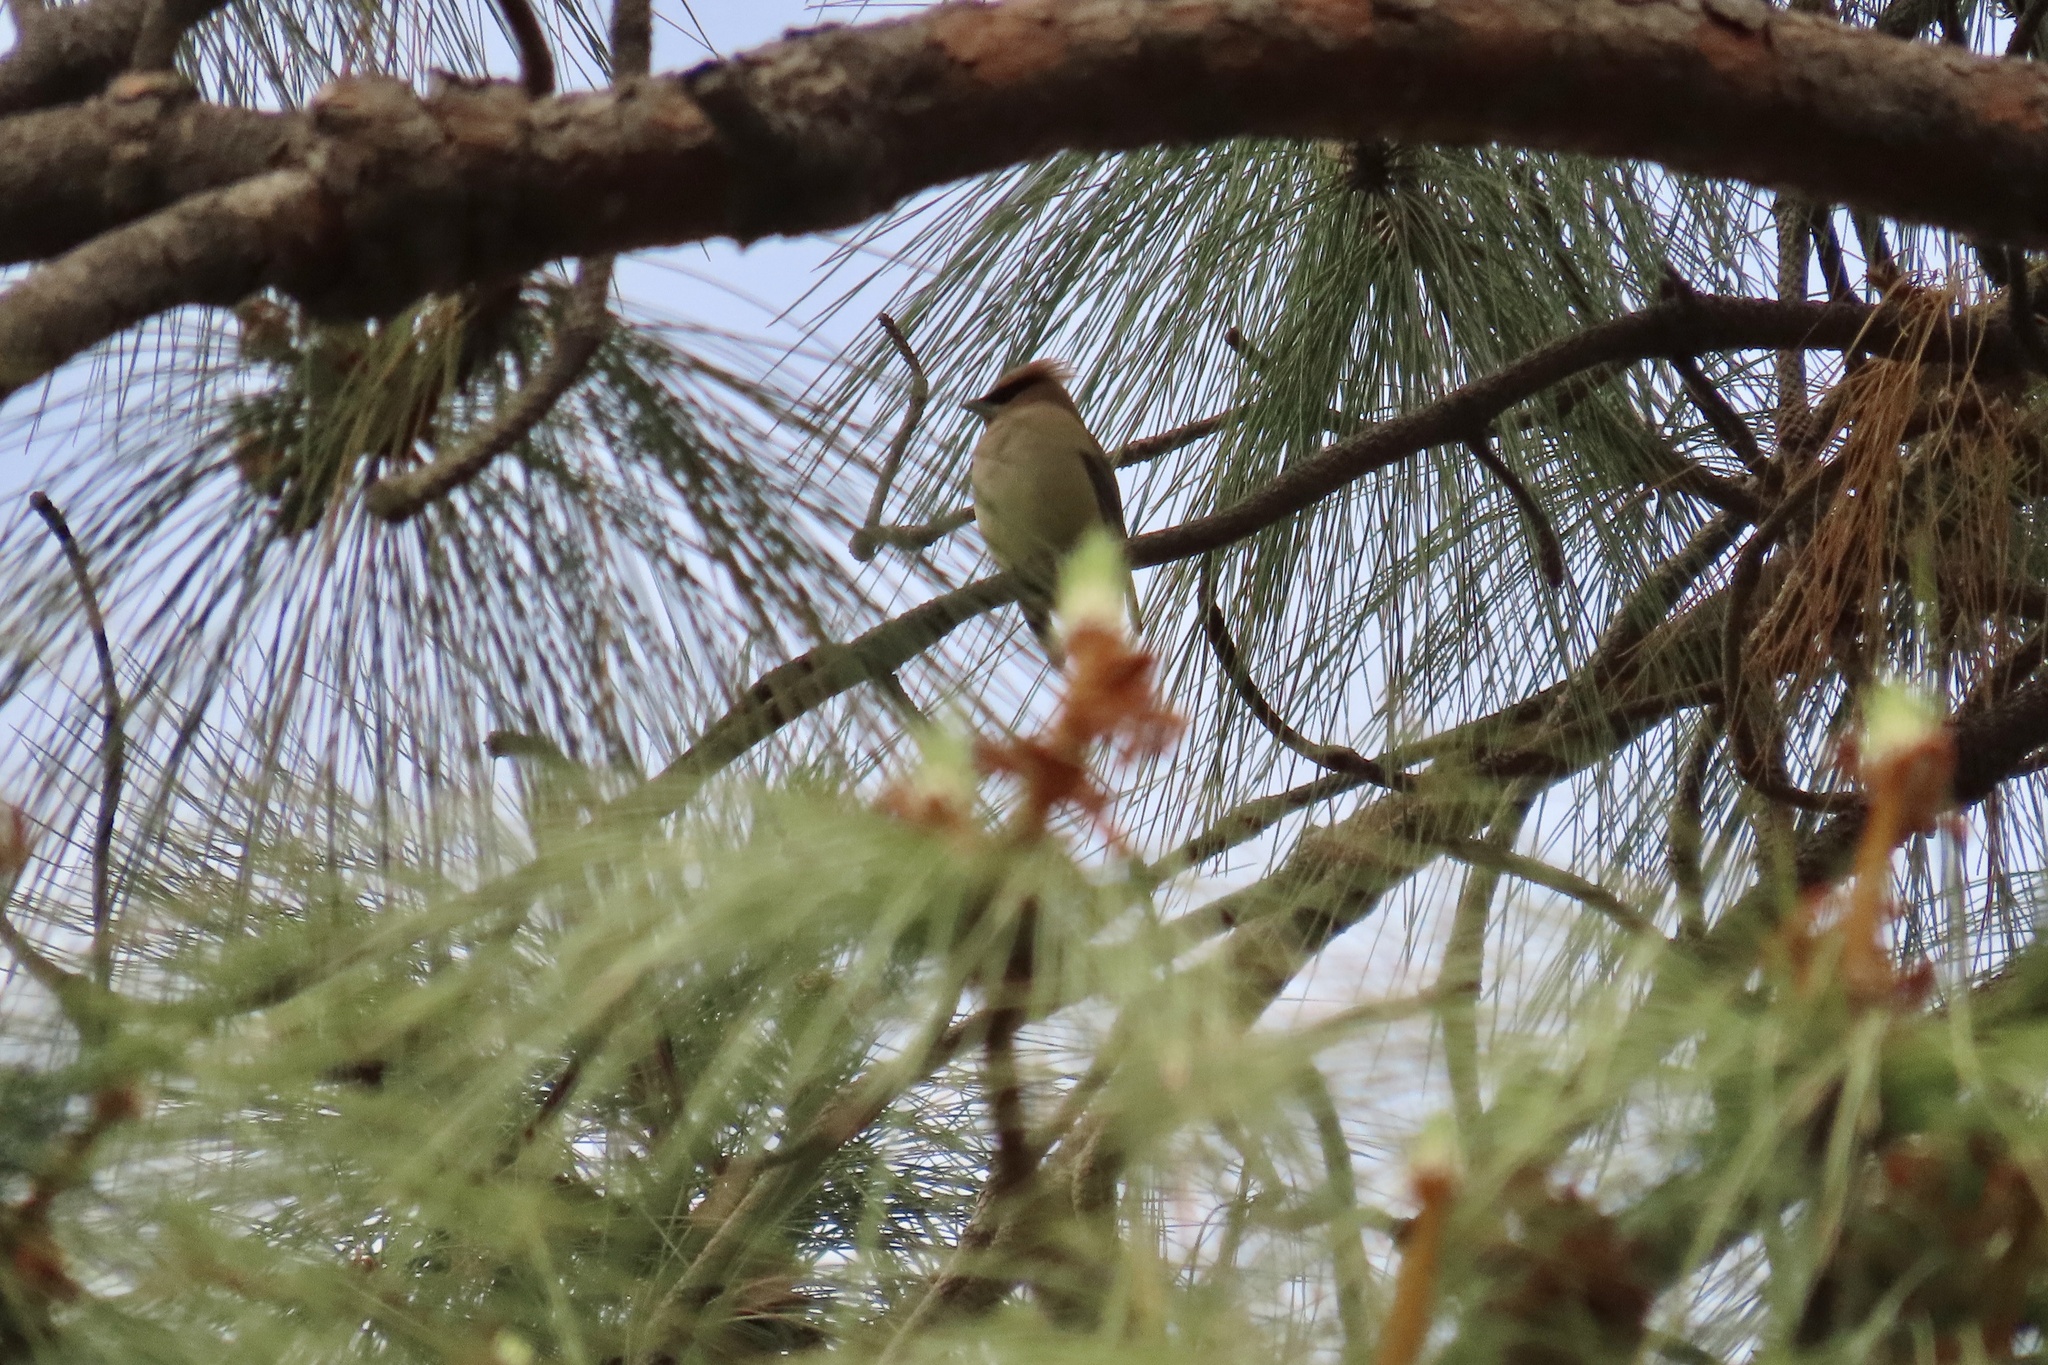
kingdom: Animalia
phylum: Chordata
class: Aves
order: Passeriformes
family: Bombycillidae
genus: Bombycilla
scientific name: Bombycilla cedrorum
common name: Cedar waxwing
